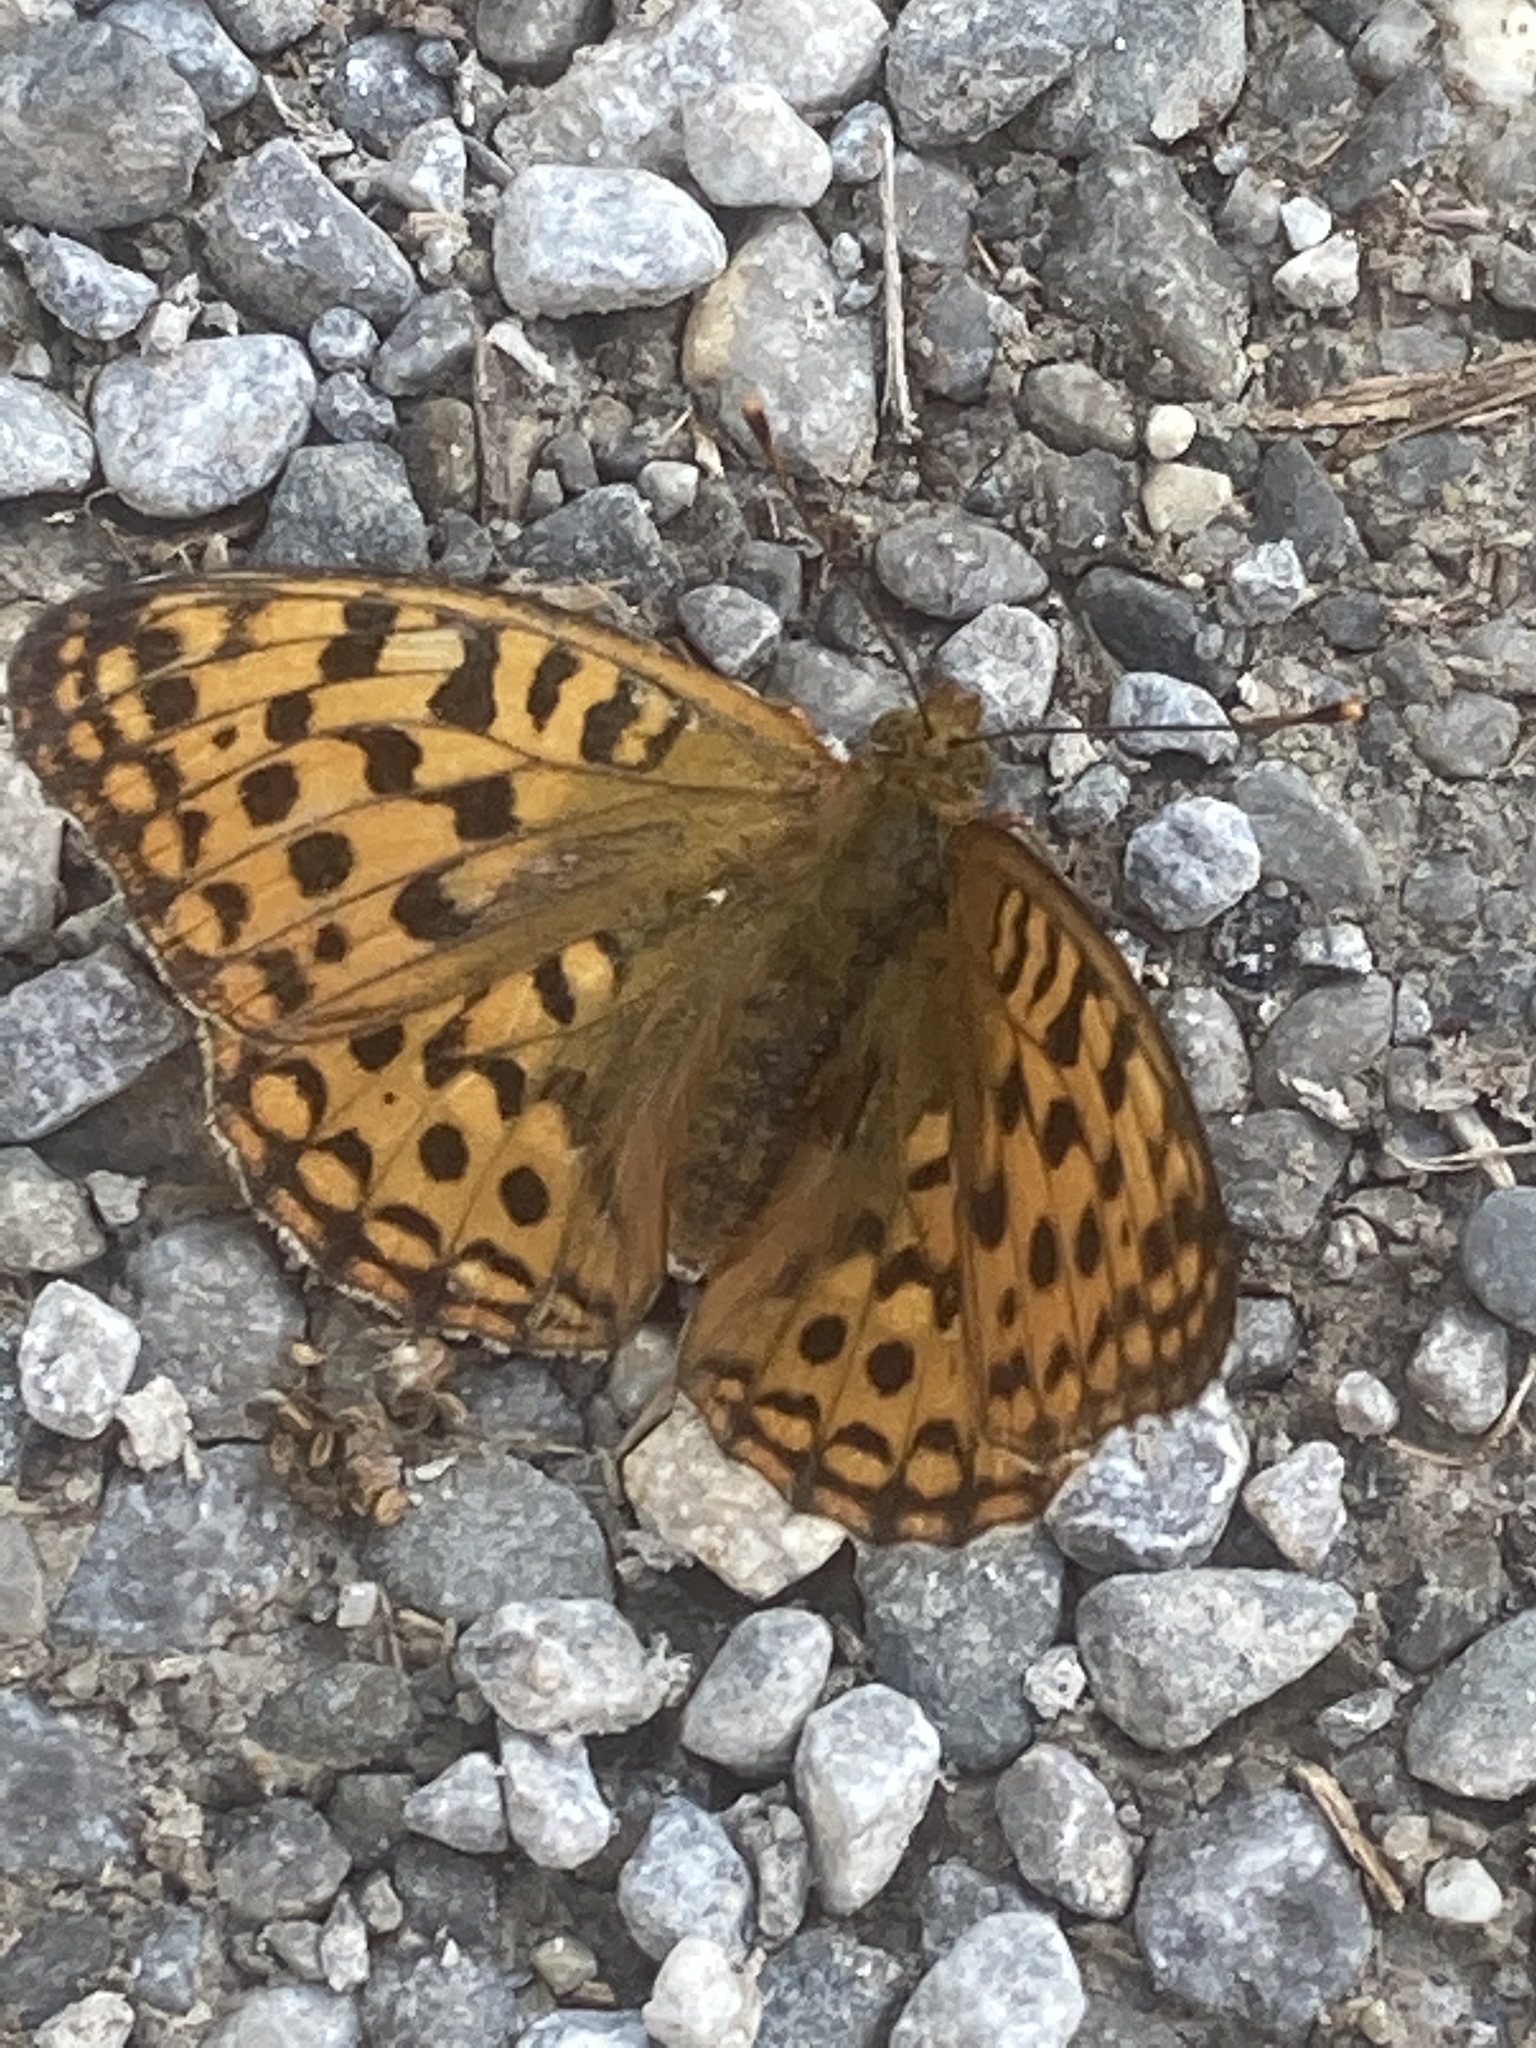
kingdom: Animalia
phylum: Arthropoda
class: Insecta
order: Lepidoptera
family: Nymphalidae
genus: Fabriciana
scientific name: Fabriciana adippe
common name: High brown fritillary
